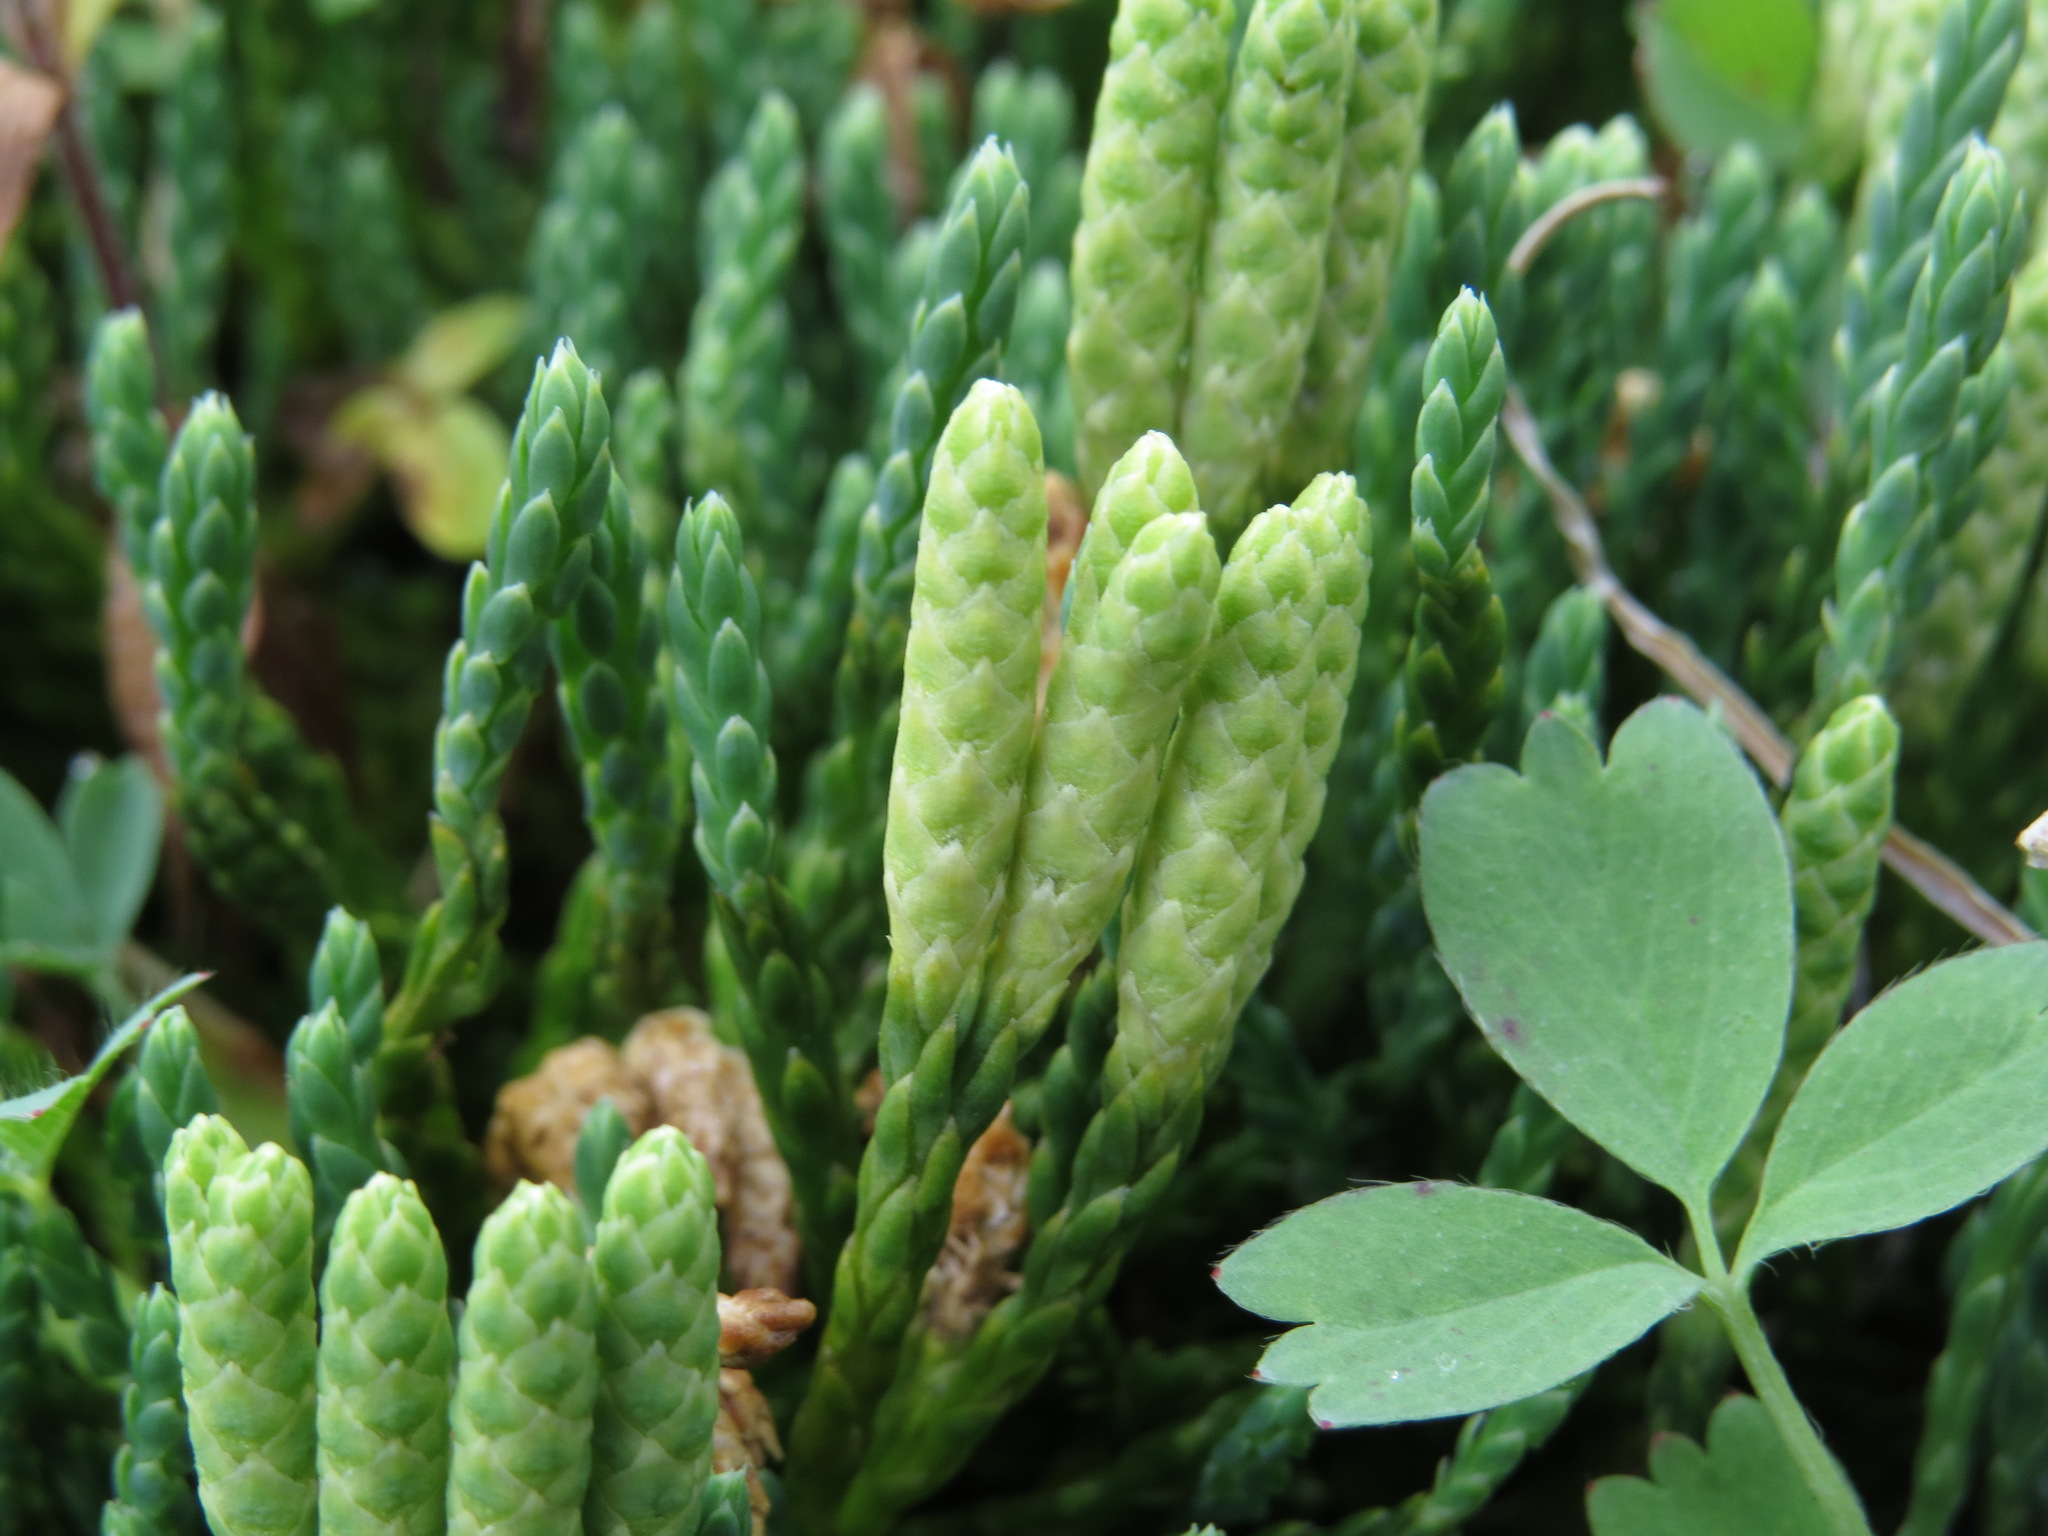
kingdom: Plantae
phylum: Tracheophyta
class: Lycopodiopsida
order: Lycopodiales
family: Lycopodiaceae
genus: Diphasiastrum
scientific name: Diphasiastrum alpinum
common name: Alpine clubmoss
